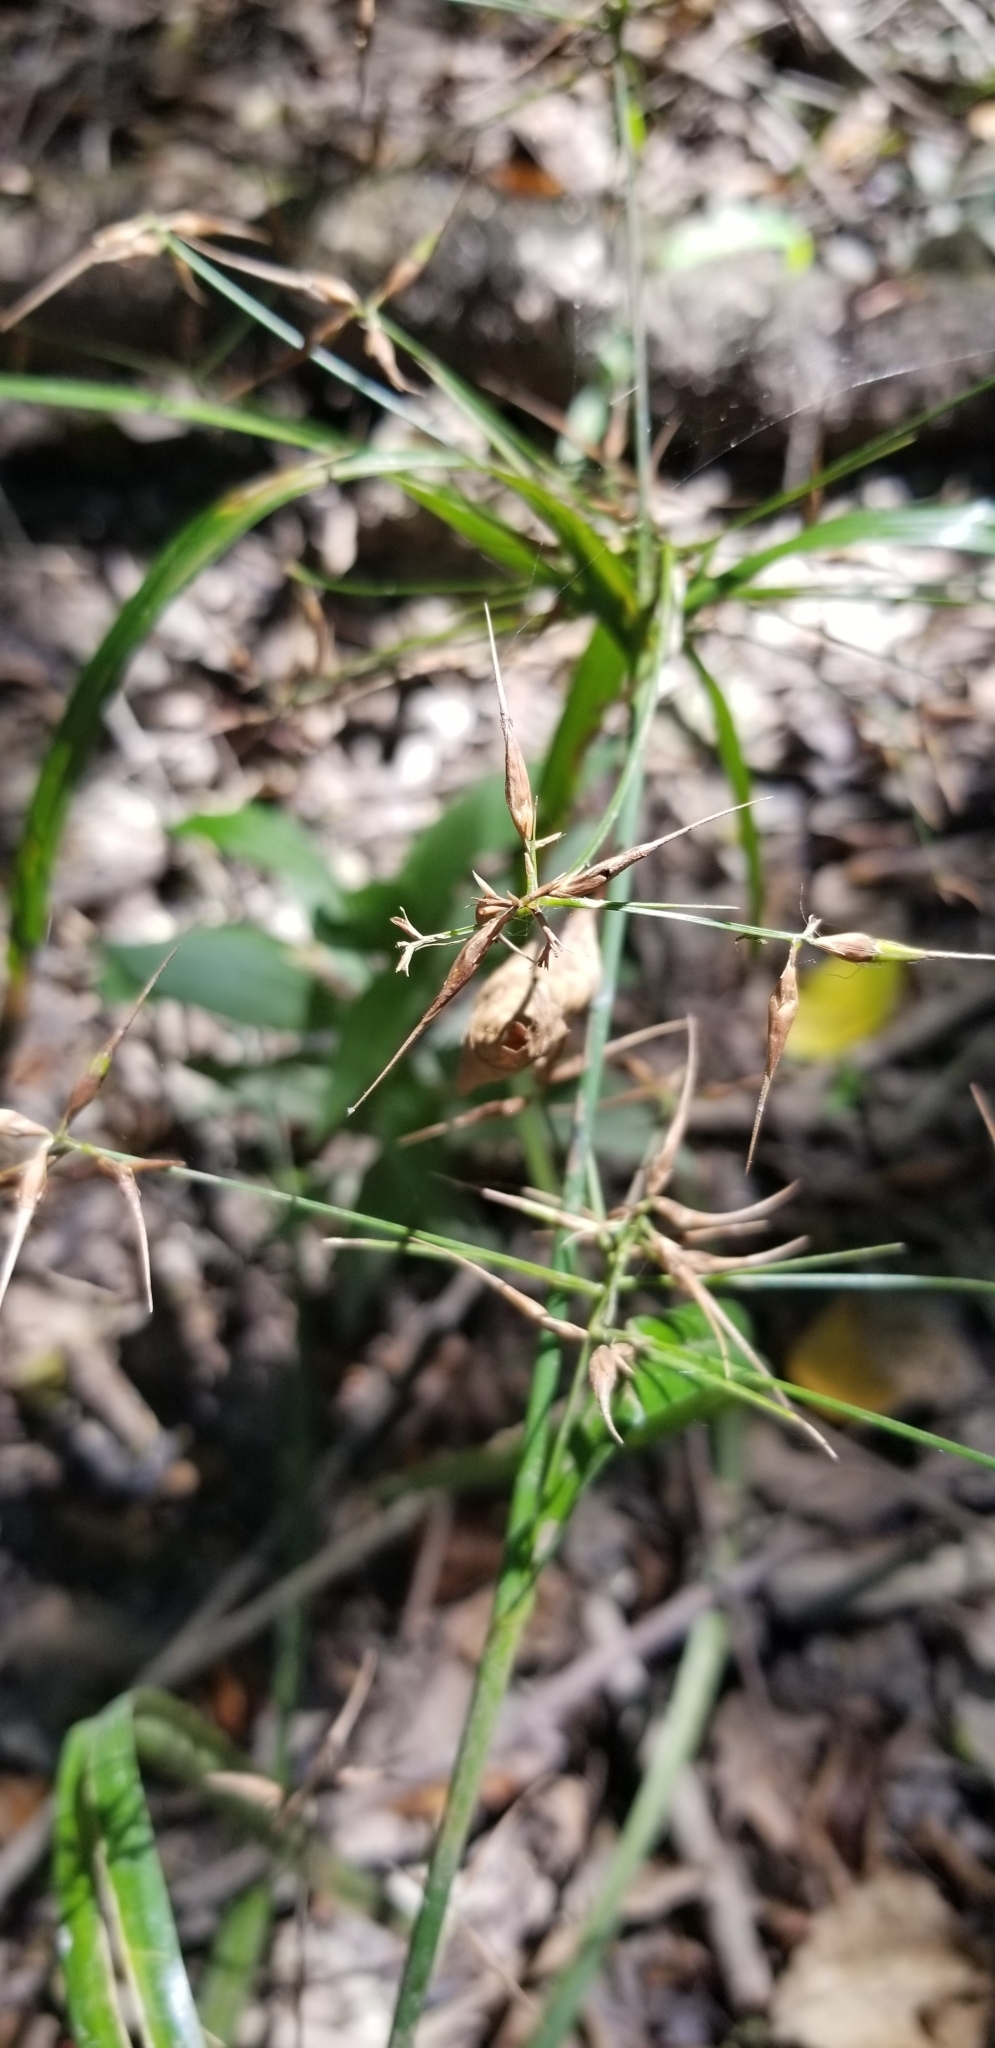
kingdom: Plantae
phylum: Tracheophyta
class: Liliopsida
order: Poales
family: Cyperaceae
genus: Rhynchospora
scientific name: Rhynchospora corniculata
